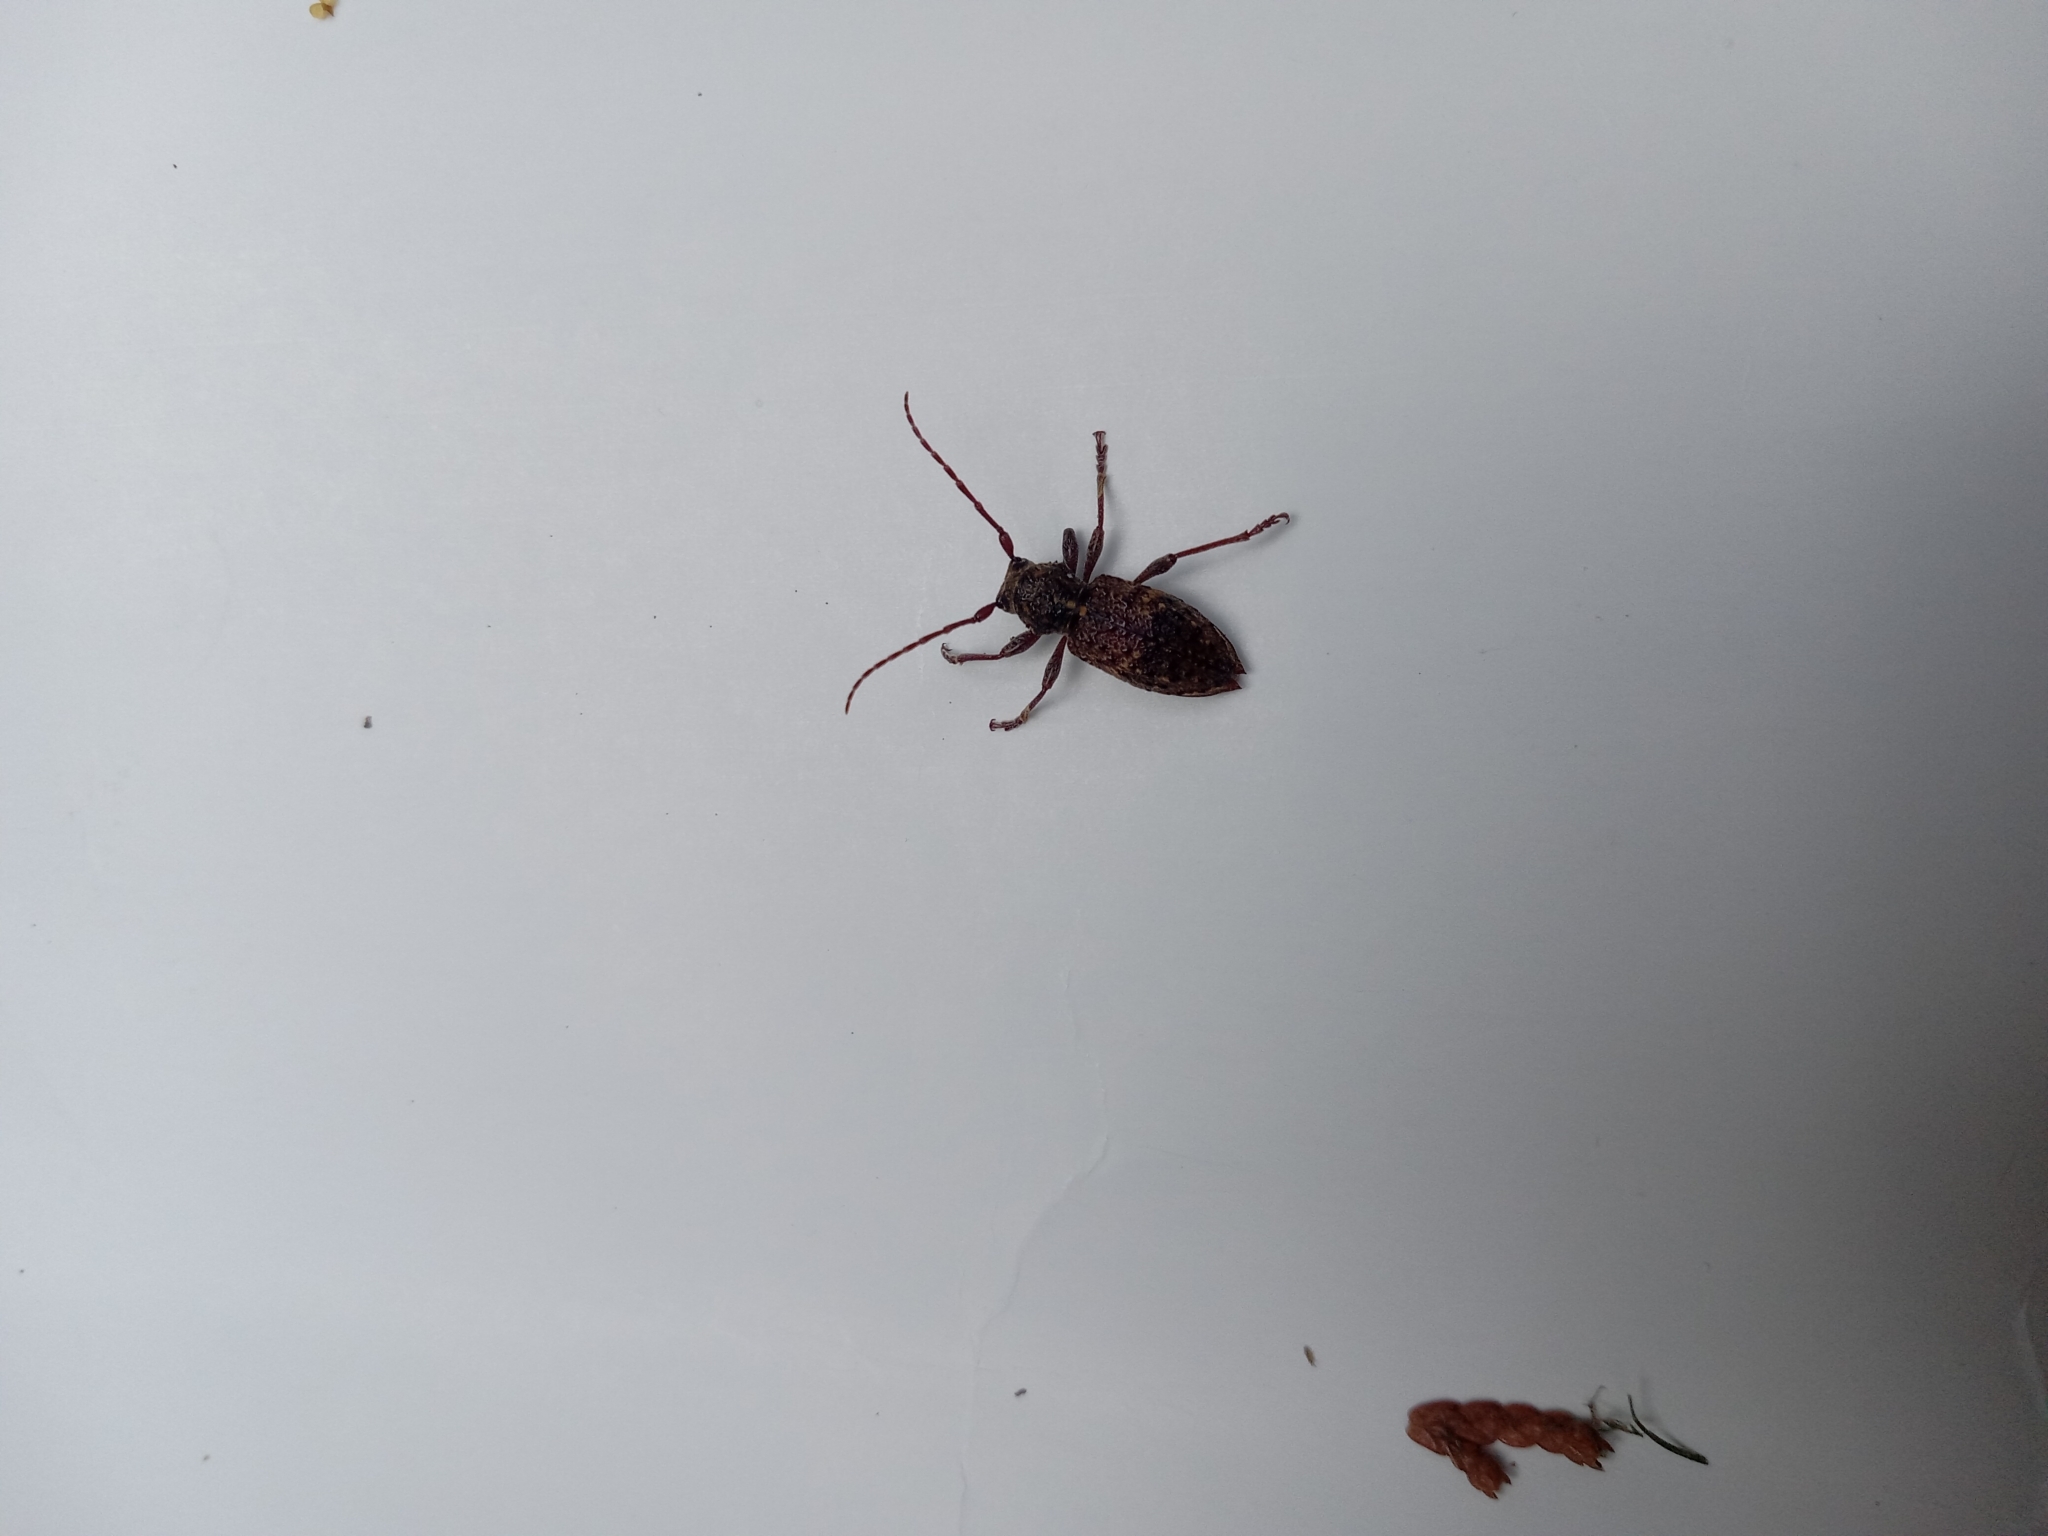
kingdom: Animalia
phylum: Arthropoda
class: Insecta
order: Coleoptera
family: Cerambycidae
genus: Plectrura
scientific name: Plectrura spinicauda
